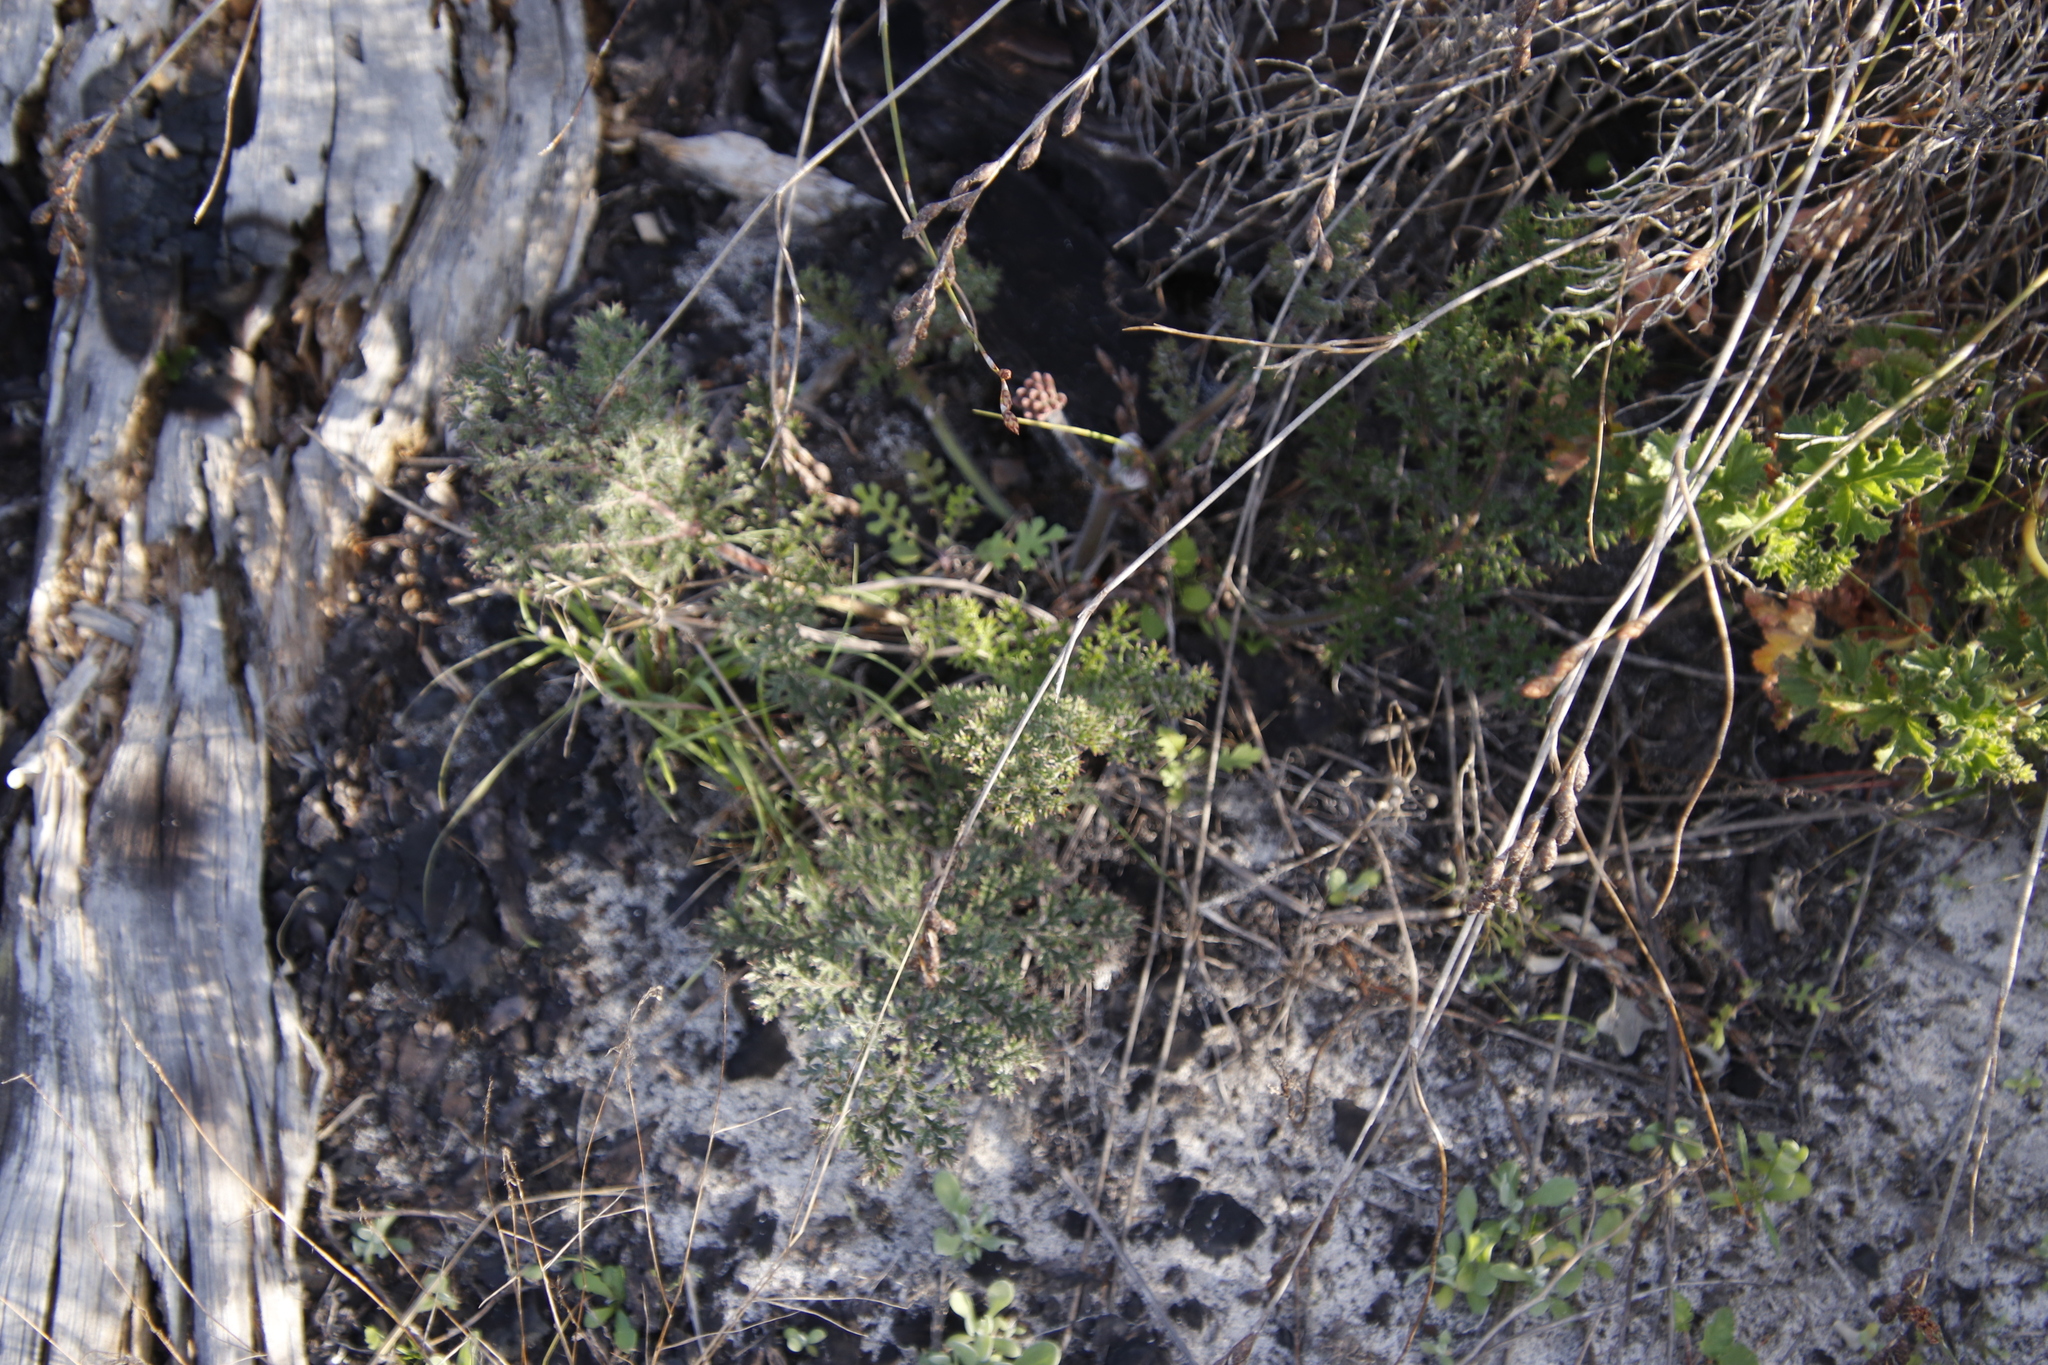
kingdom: Plantae
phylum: Tracheophyta
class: Magnoliopsida
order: Geraniales
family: Geraniaceae
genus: Pelargonium
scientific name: Pelargonium triste
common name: Night-scent pelargonium
